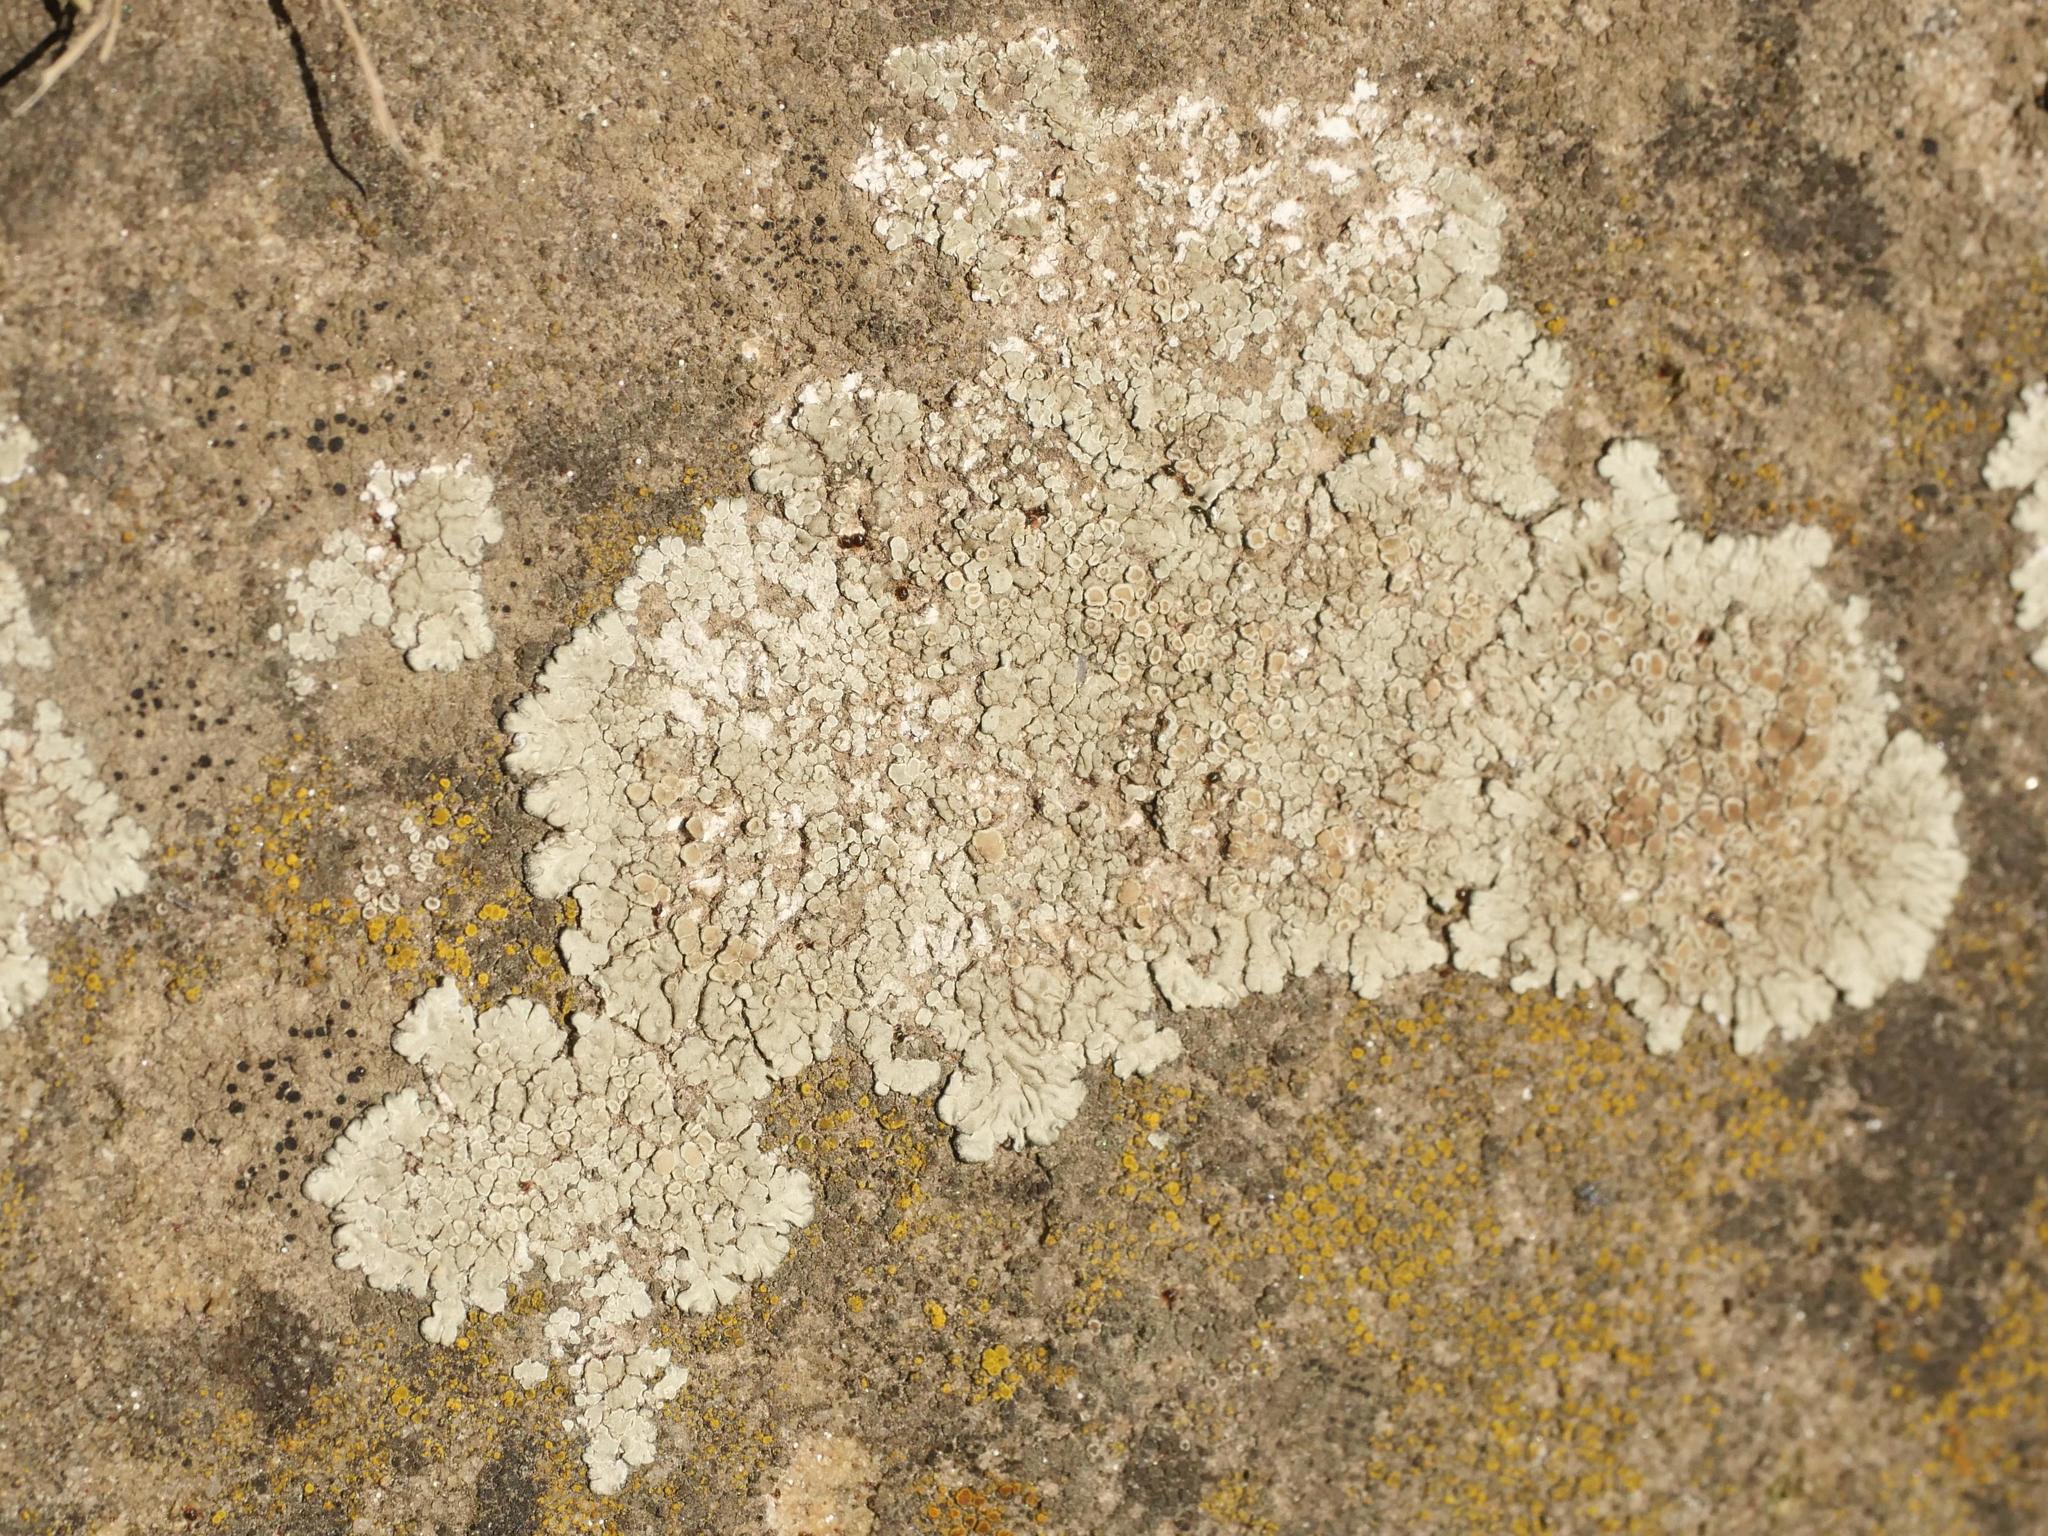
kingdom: Fungi
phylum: Ascomycota
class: Lecanoromycetes
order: Lecanorales
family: Lecanoraceae
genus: Protoparmeliopsis
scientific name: Protoparmeliopsis muralis
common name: Stonewall rim lichen
